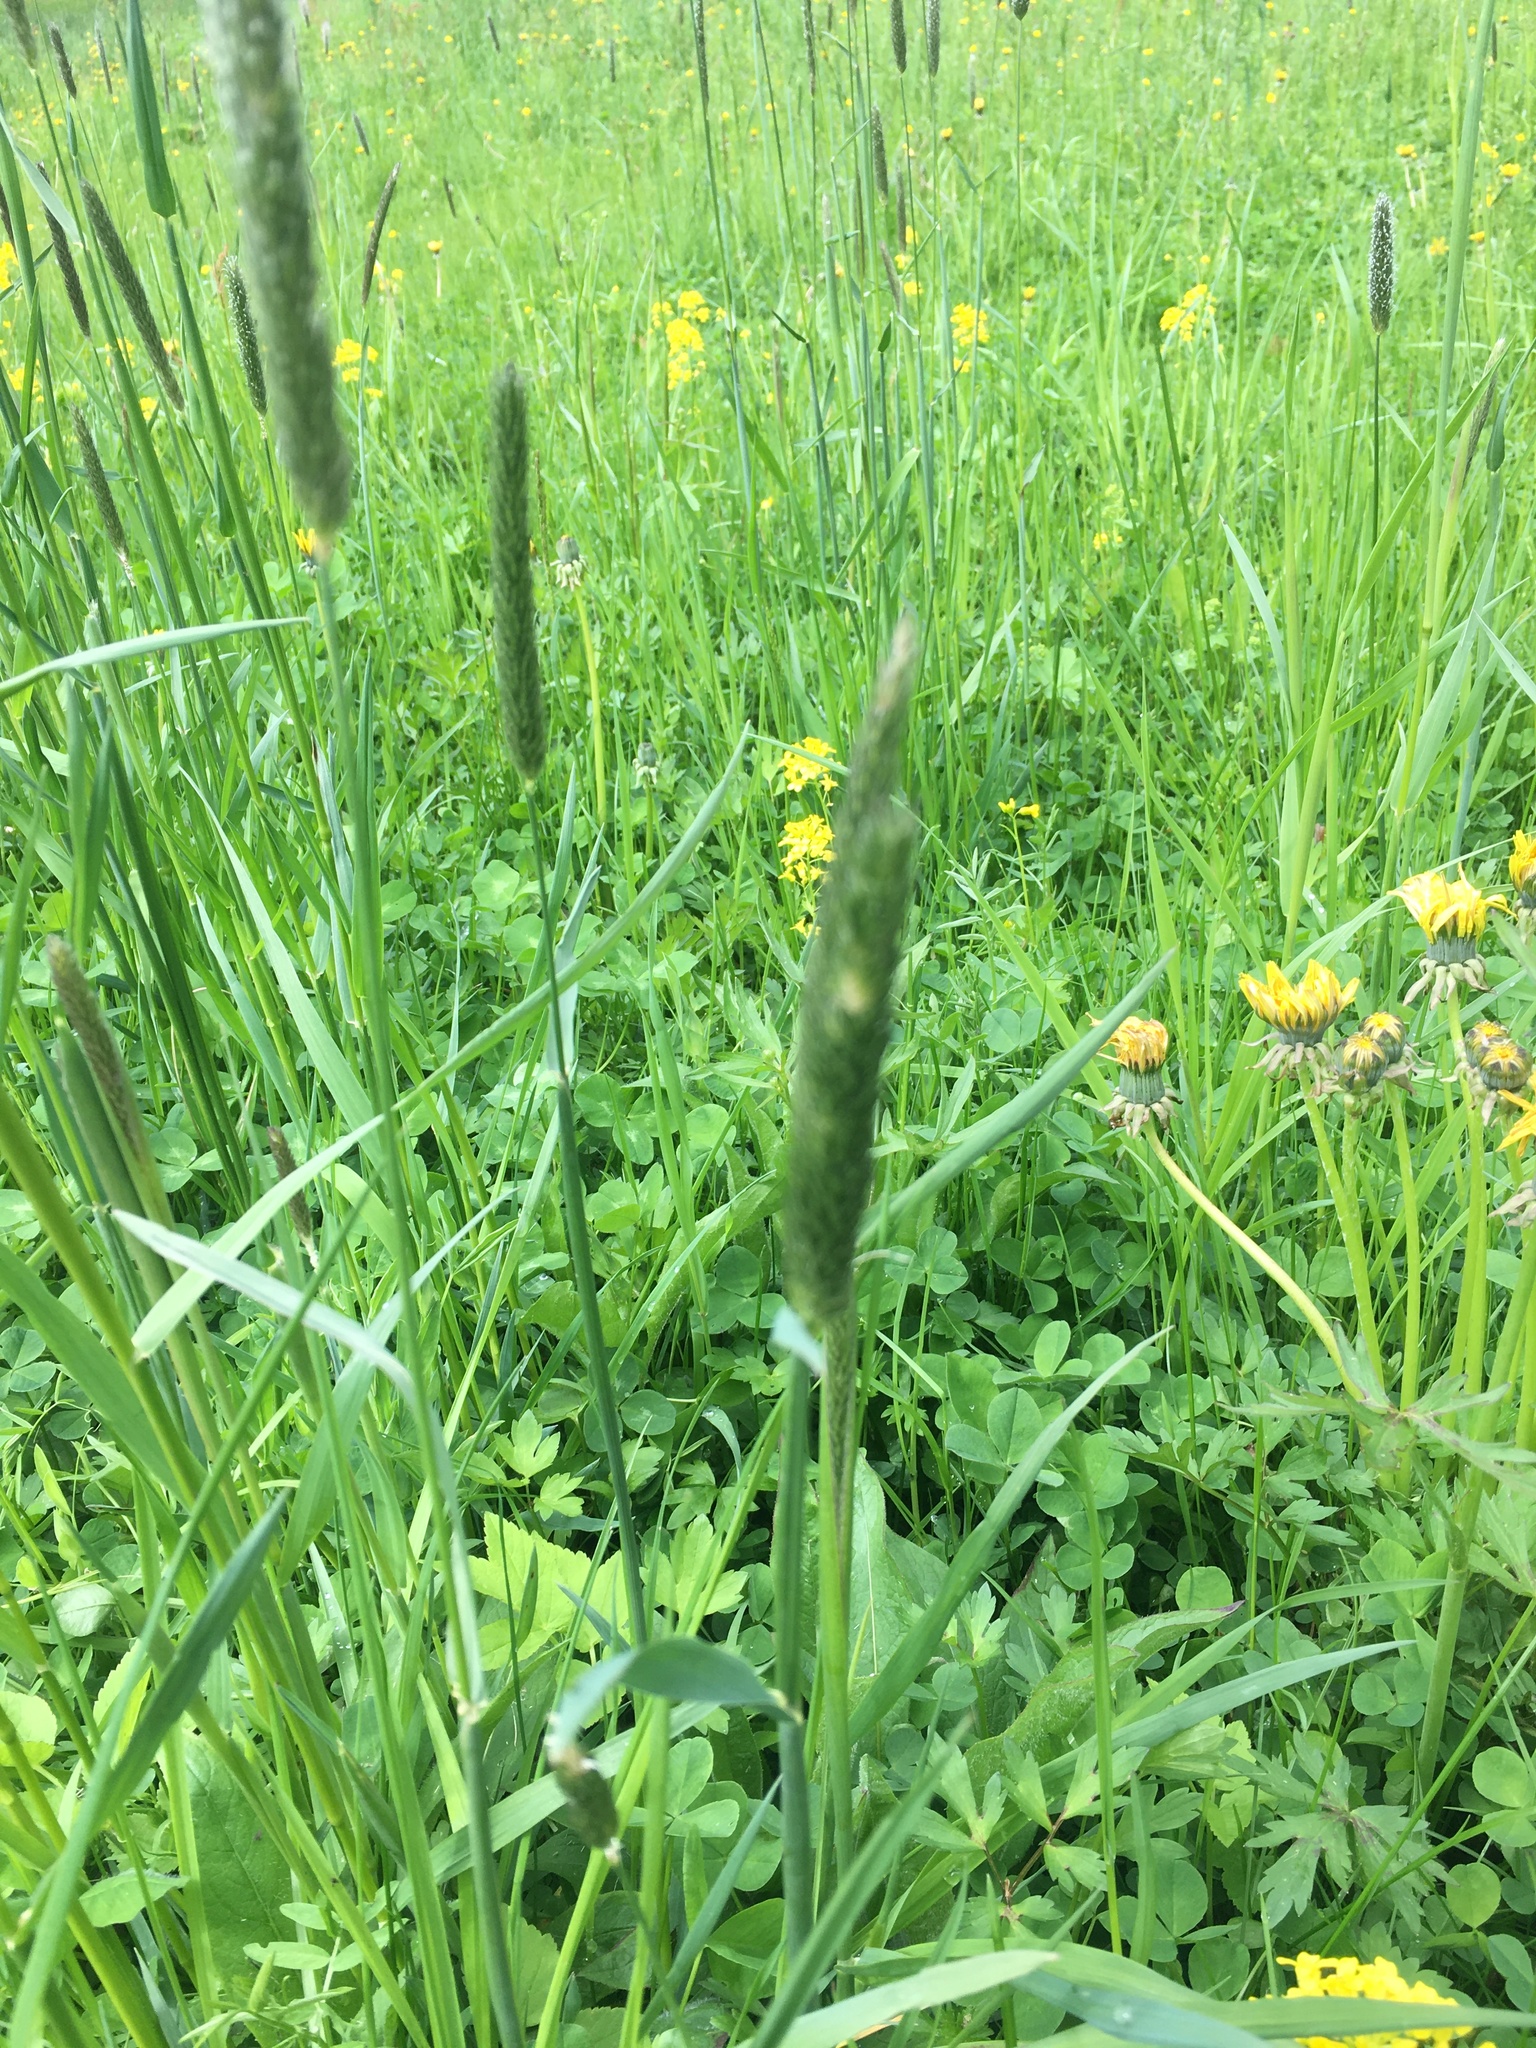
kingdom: Plantae
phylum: Tracheophyta
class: Liliopsida
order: Poales
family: Poaceae
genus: Alopecurus
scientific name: Alopecurus pratensis
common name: Meadow foxtail
